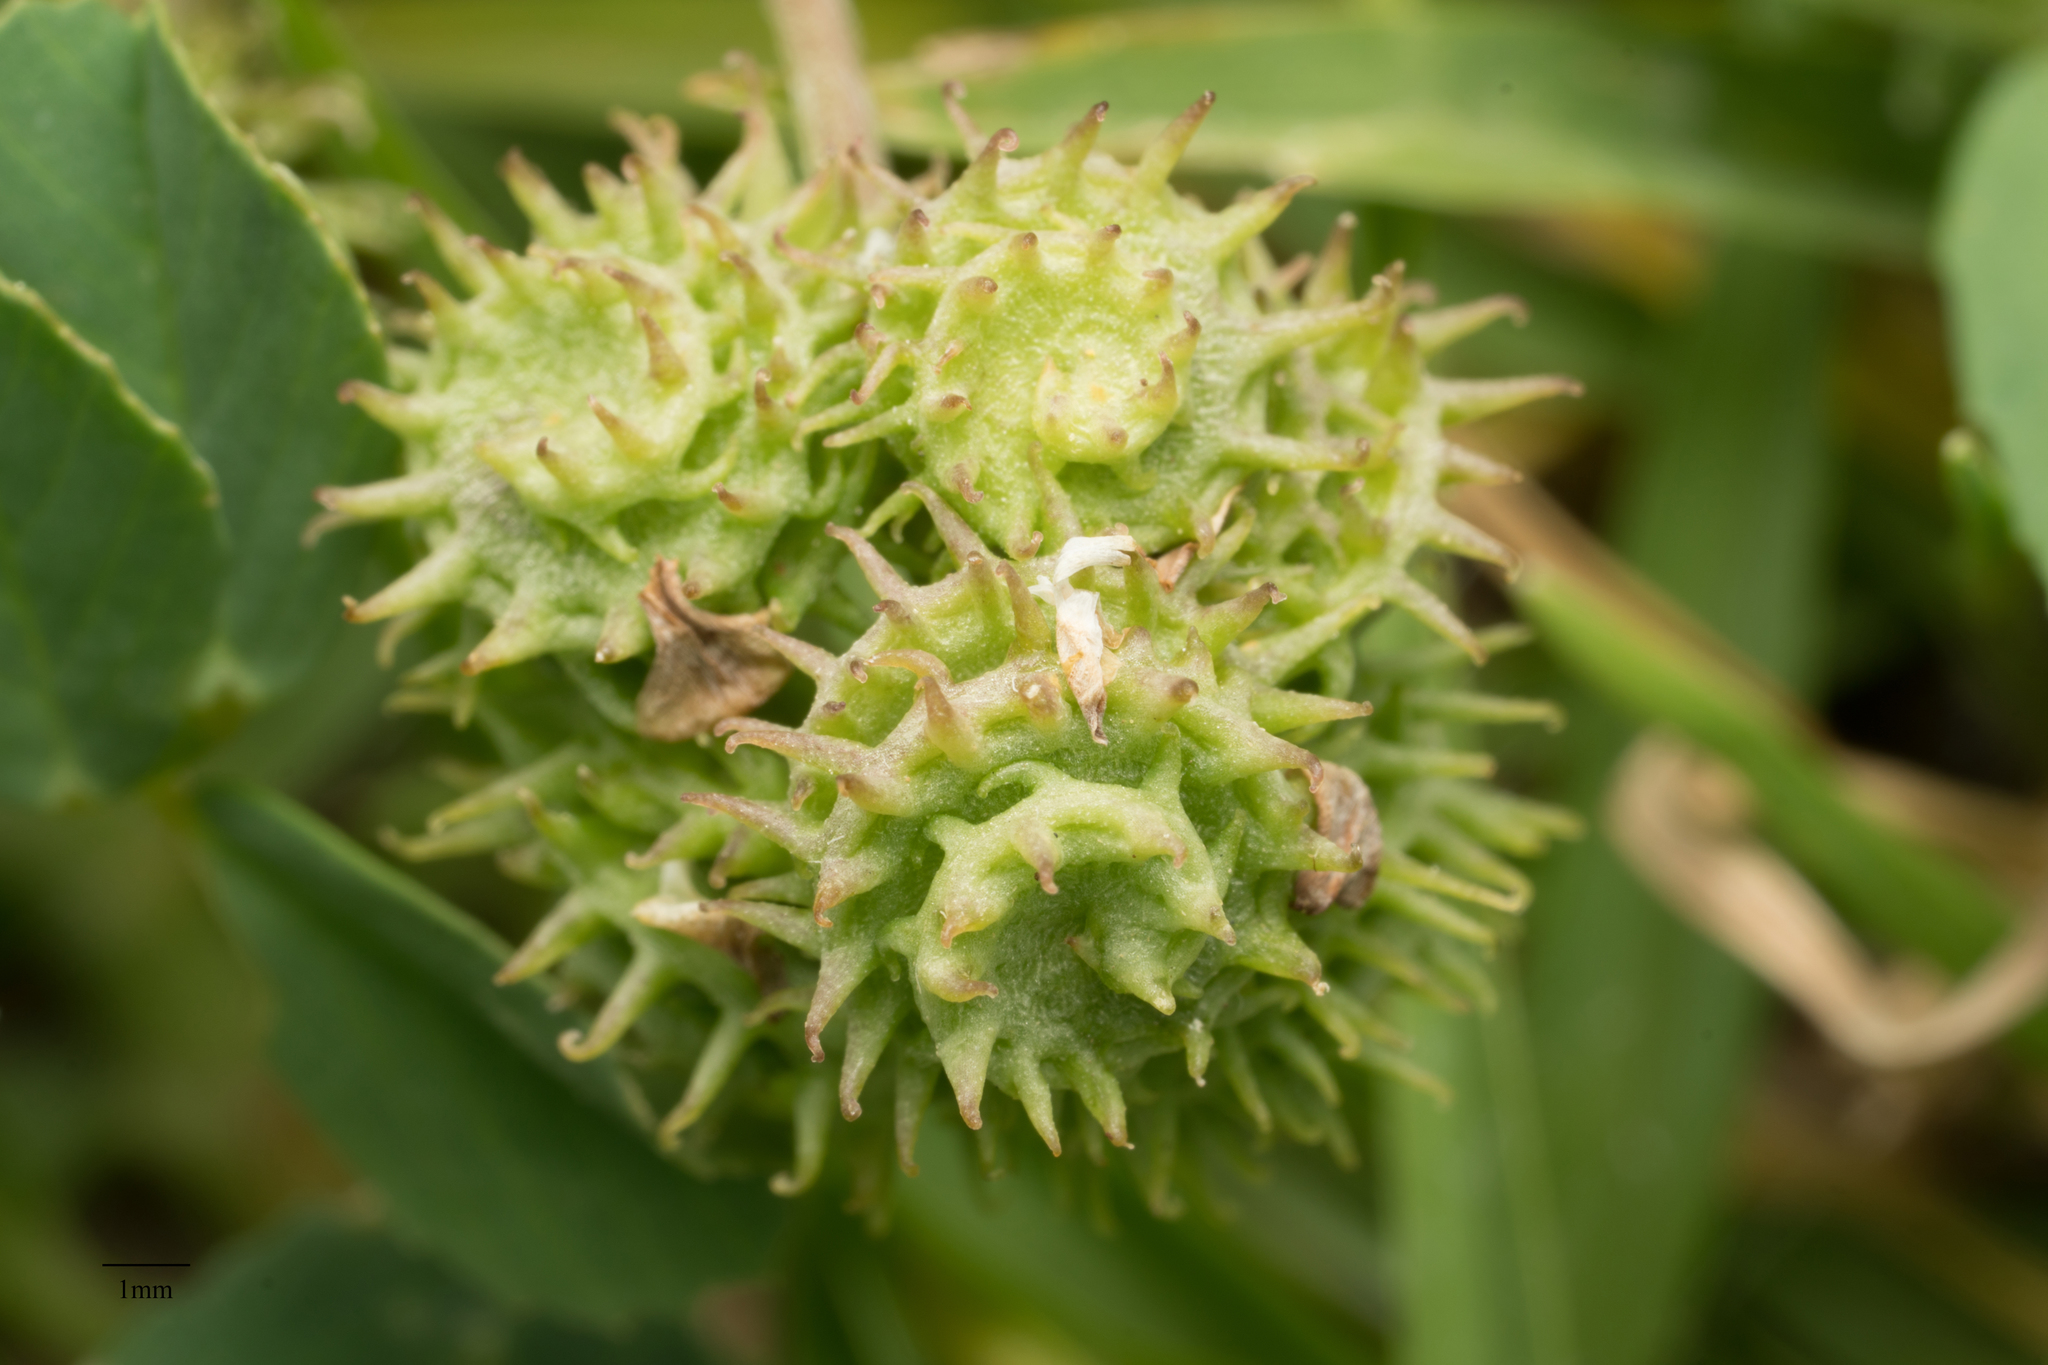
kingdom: Plantae
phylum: Tracheophyta
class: Magnoliopsida
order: Fabales
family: Fabaceae
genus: Medicago
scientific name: Medicago polymorpha
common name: Burclover
